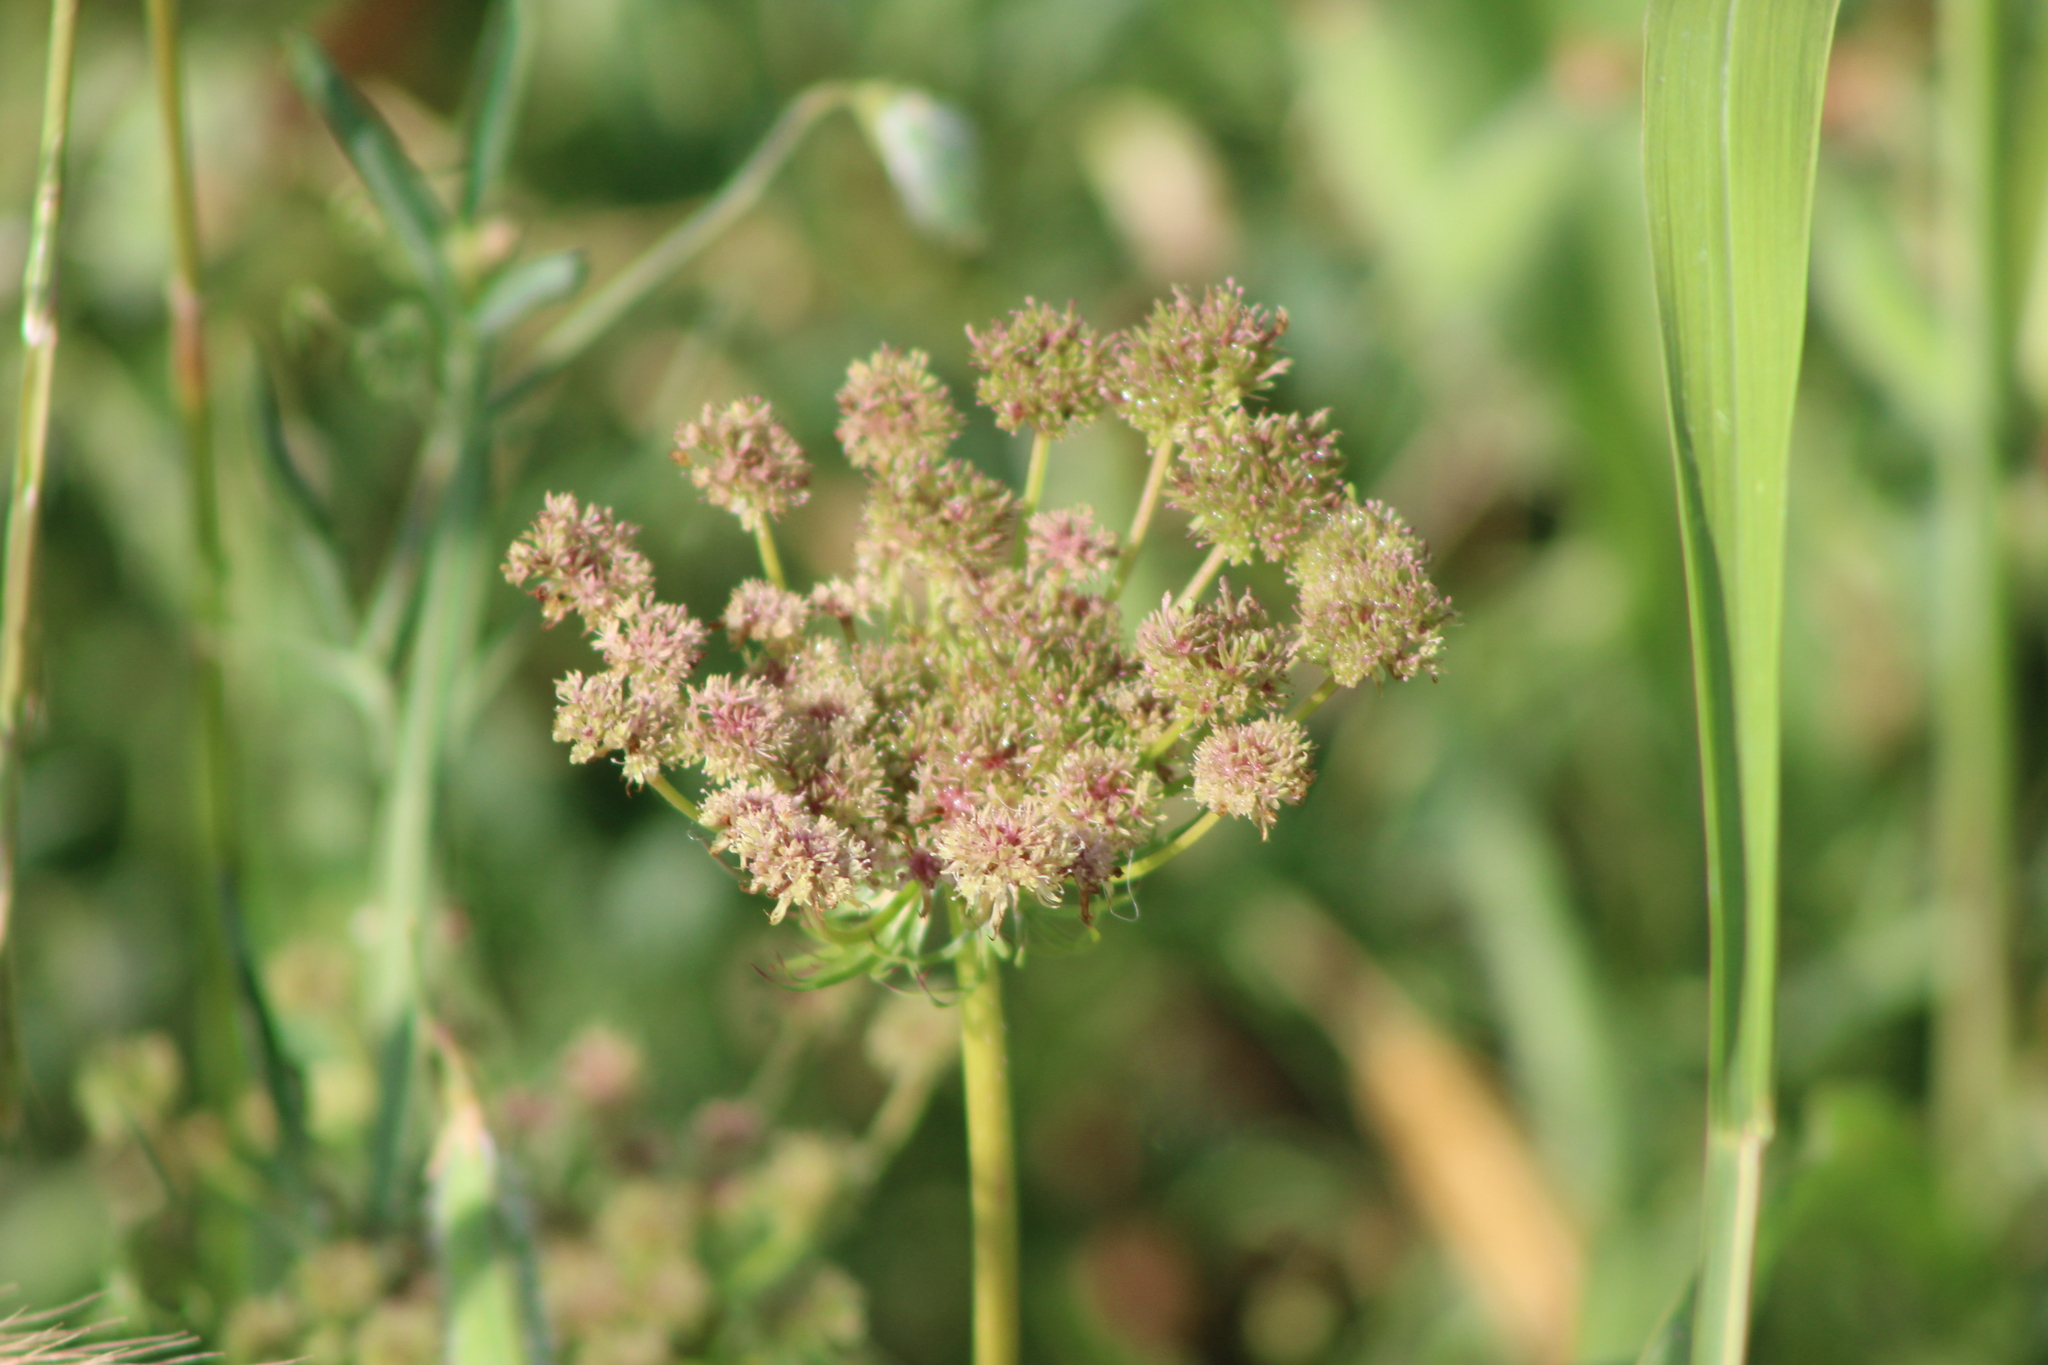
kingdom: Plantae
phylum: Tracheophyta
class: Magnoliopsida
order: Apiales
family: Apiaceae
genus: Daucus
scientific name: Daucus carota
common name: Wild carrot
